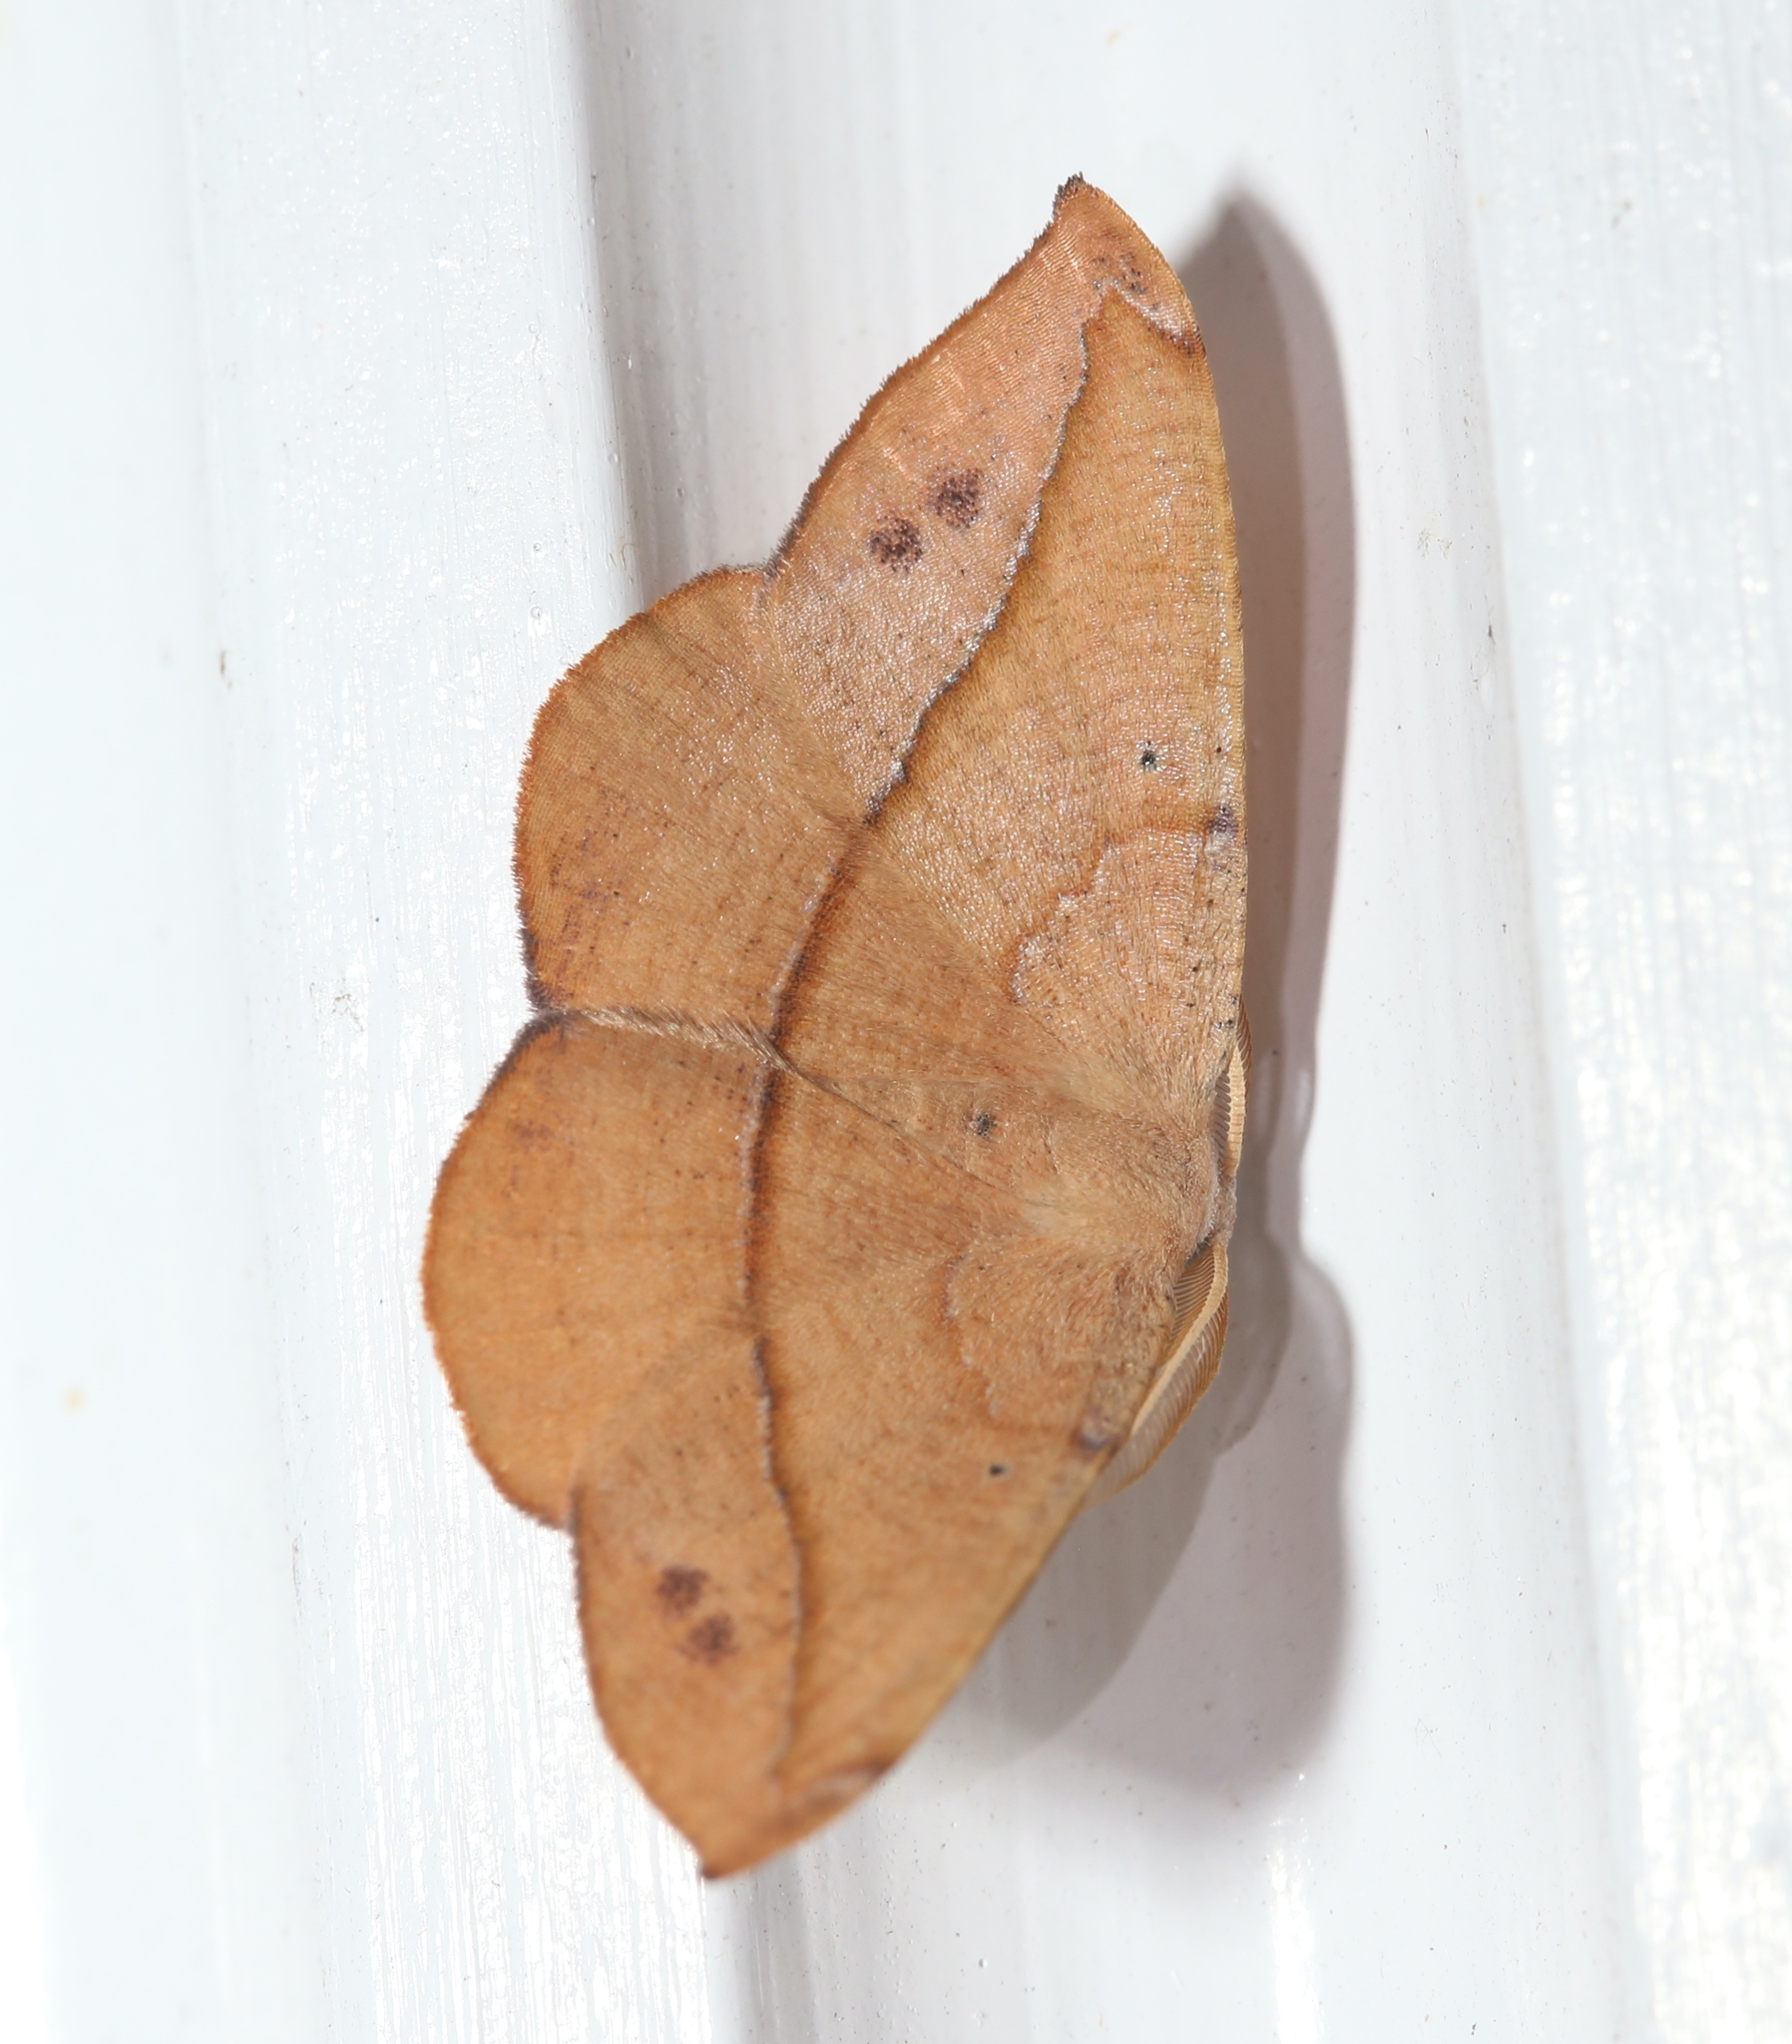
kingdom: Animalia
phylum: Arthropoda
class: Insecta
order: Lepidoptera
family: Geometridae
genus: Patalene
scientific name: Patalene olyzonaria
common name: Juniper geometer moth
